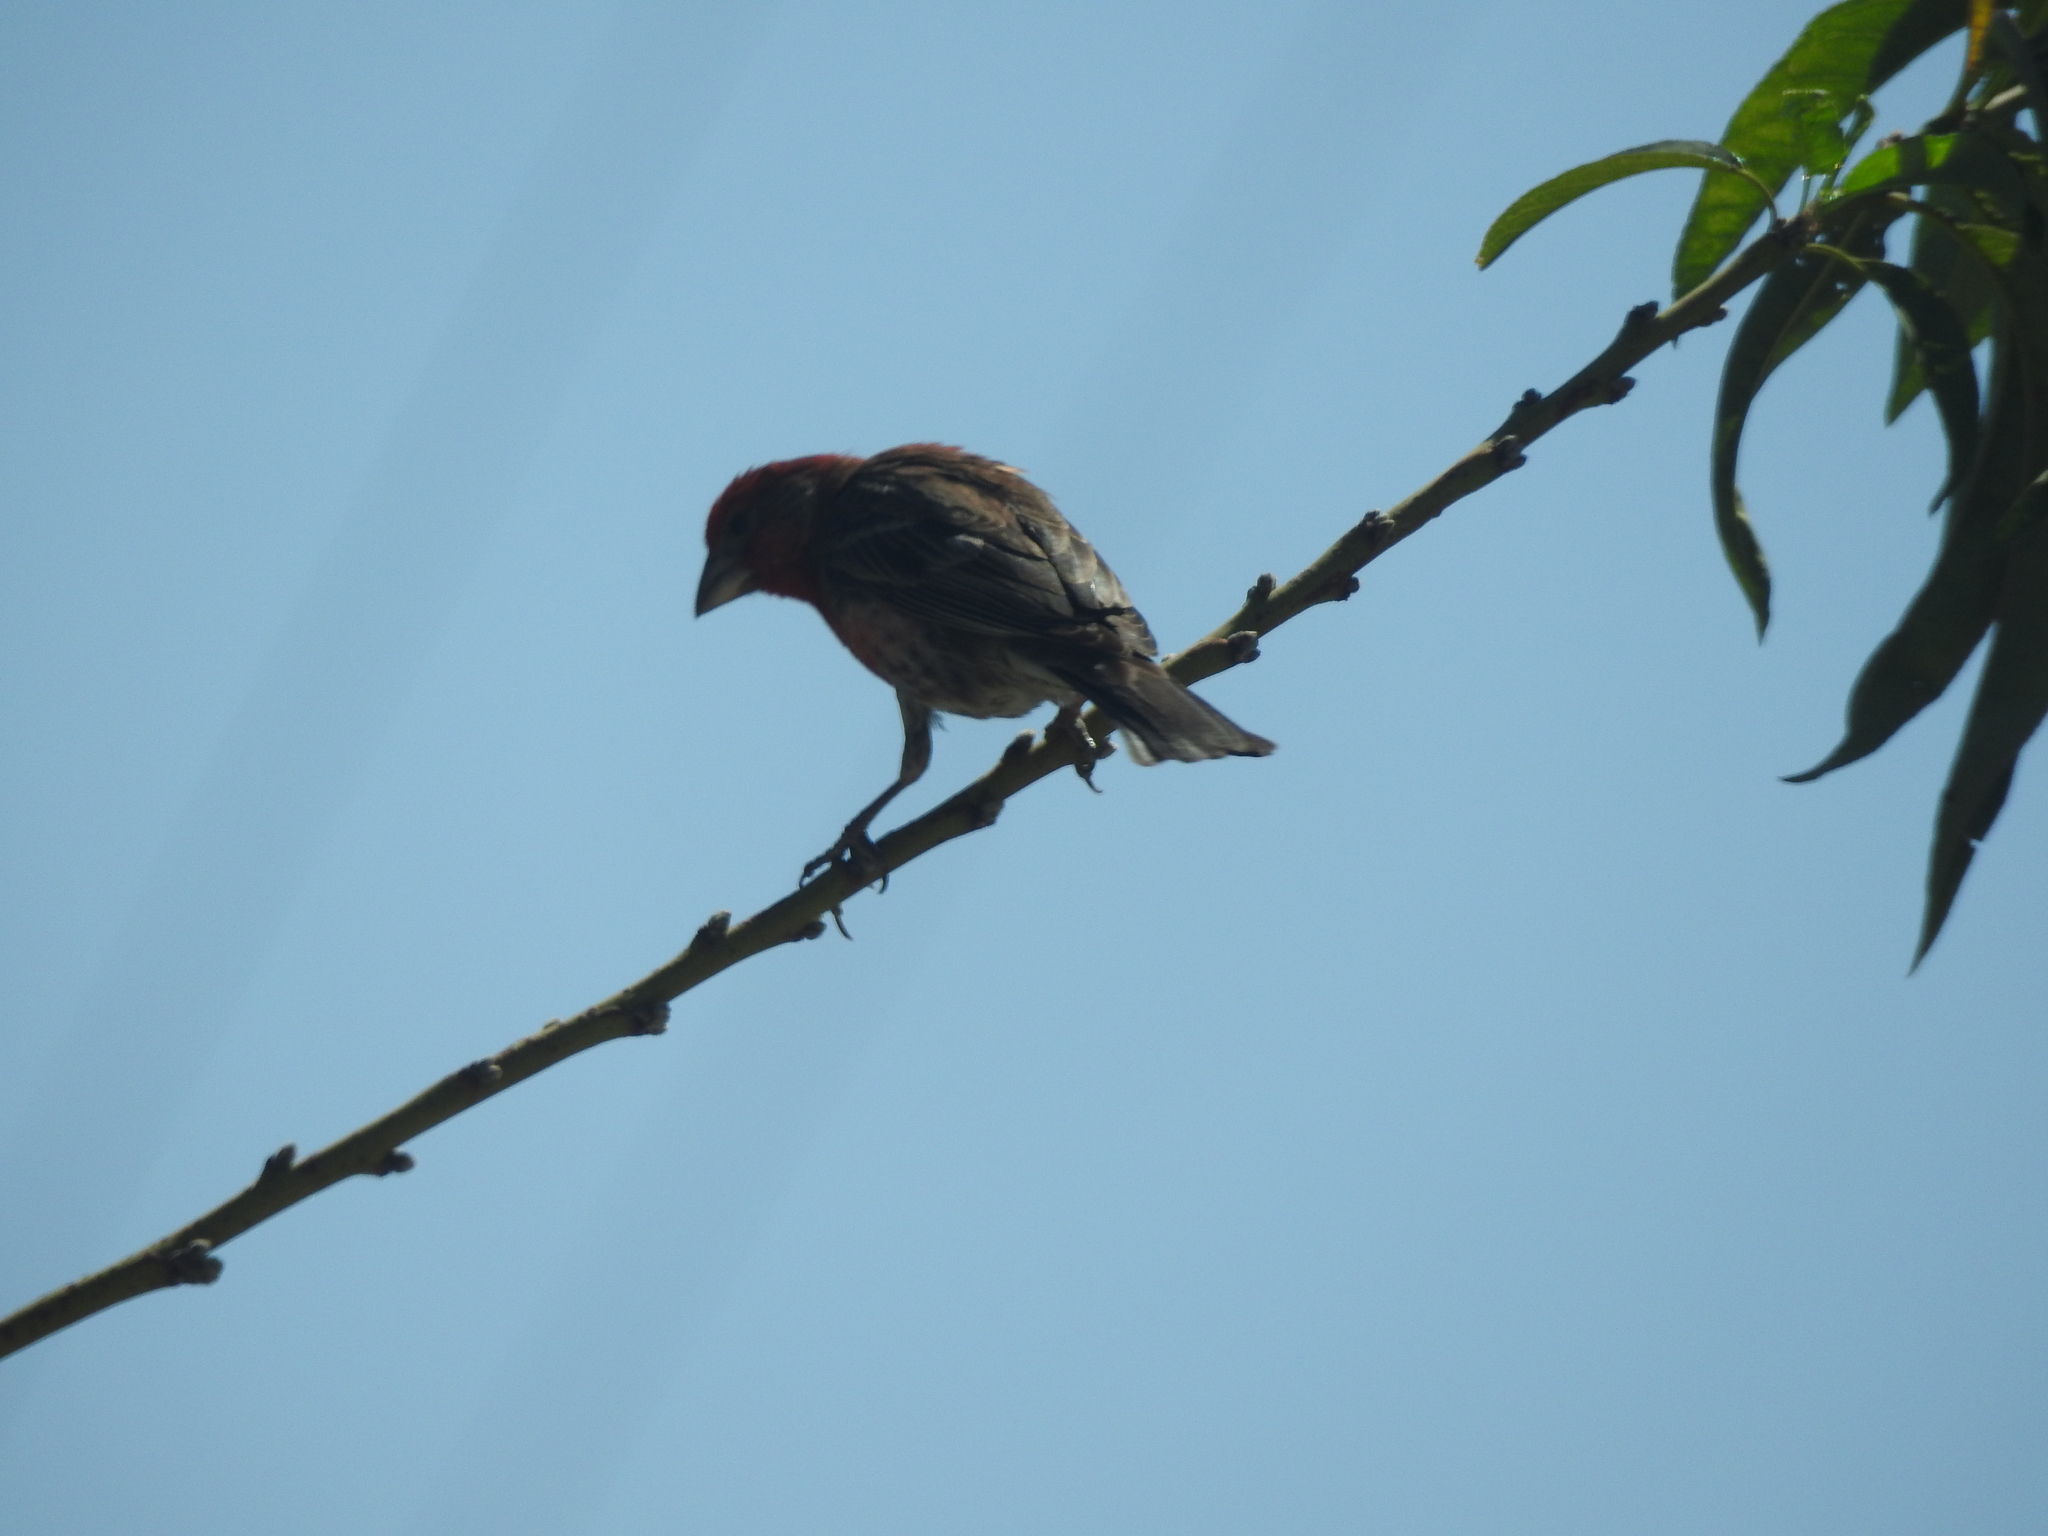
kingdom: Animalia
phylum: Chordata
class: Aves
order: Passeriformes
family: Fringillidae
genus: Haemorhous
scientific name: Haemorhous mexicanus
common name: House finch
